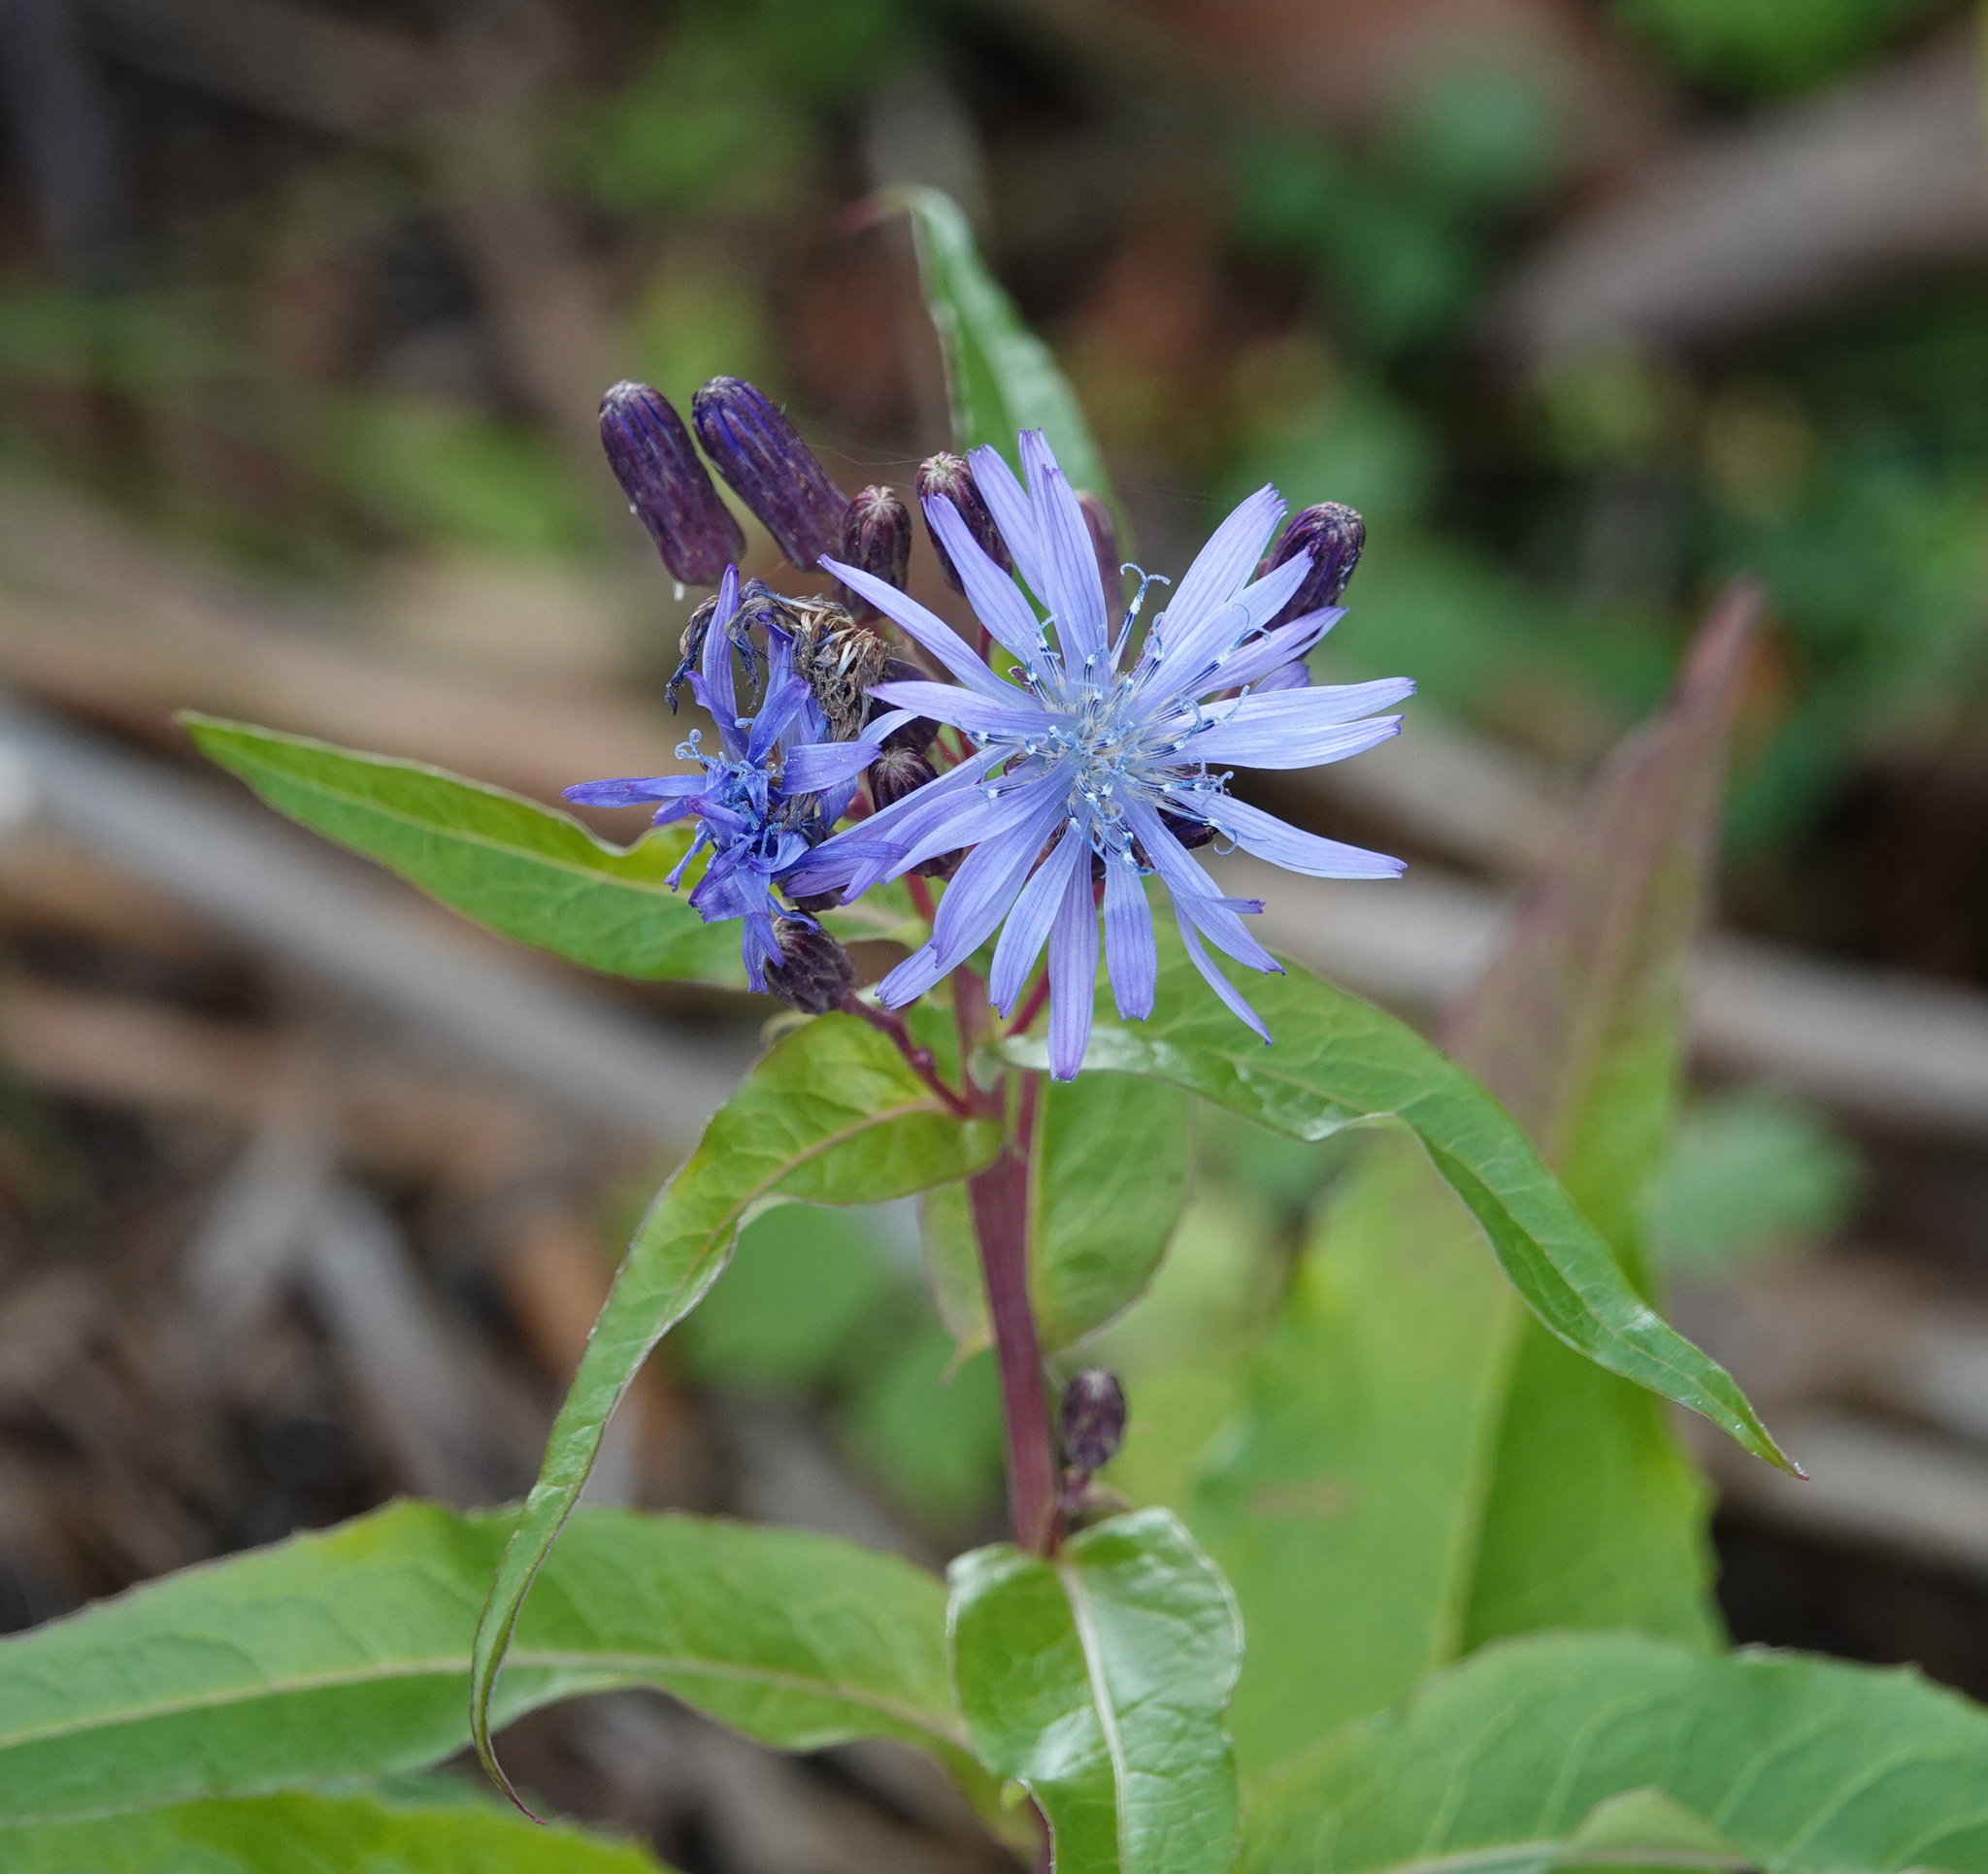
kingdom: Plantae
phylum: Tracheophyta
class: Magnoliopsida
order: Asterales
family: Asteraceae
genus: Lactuca
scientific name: Lactuca sibirica
